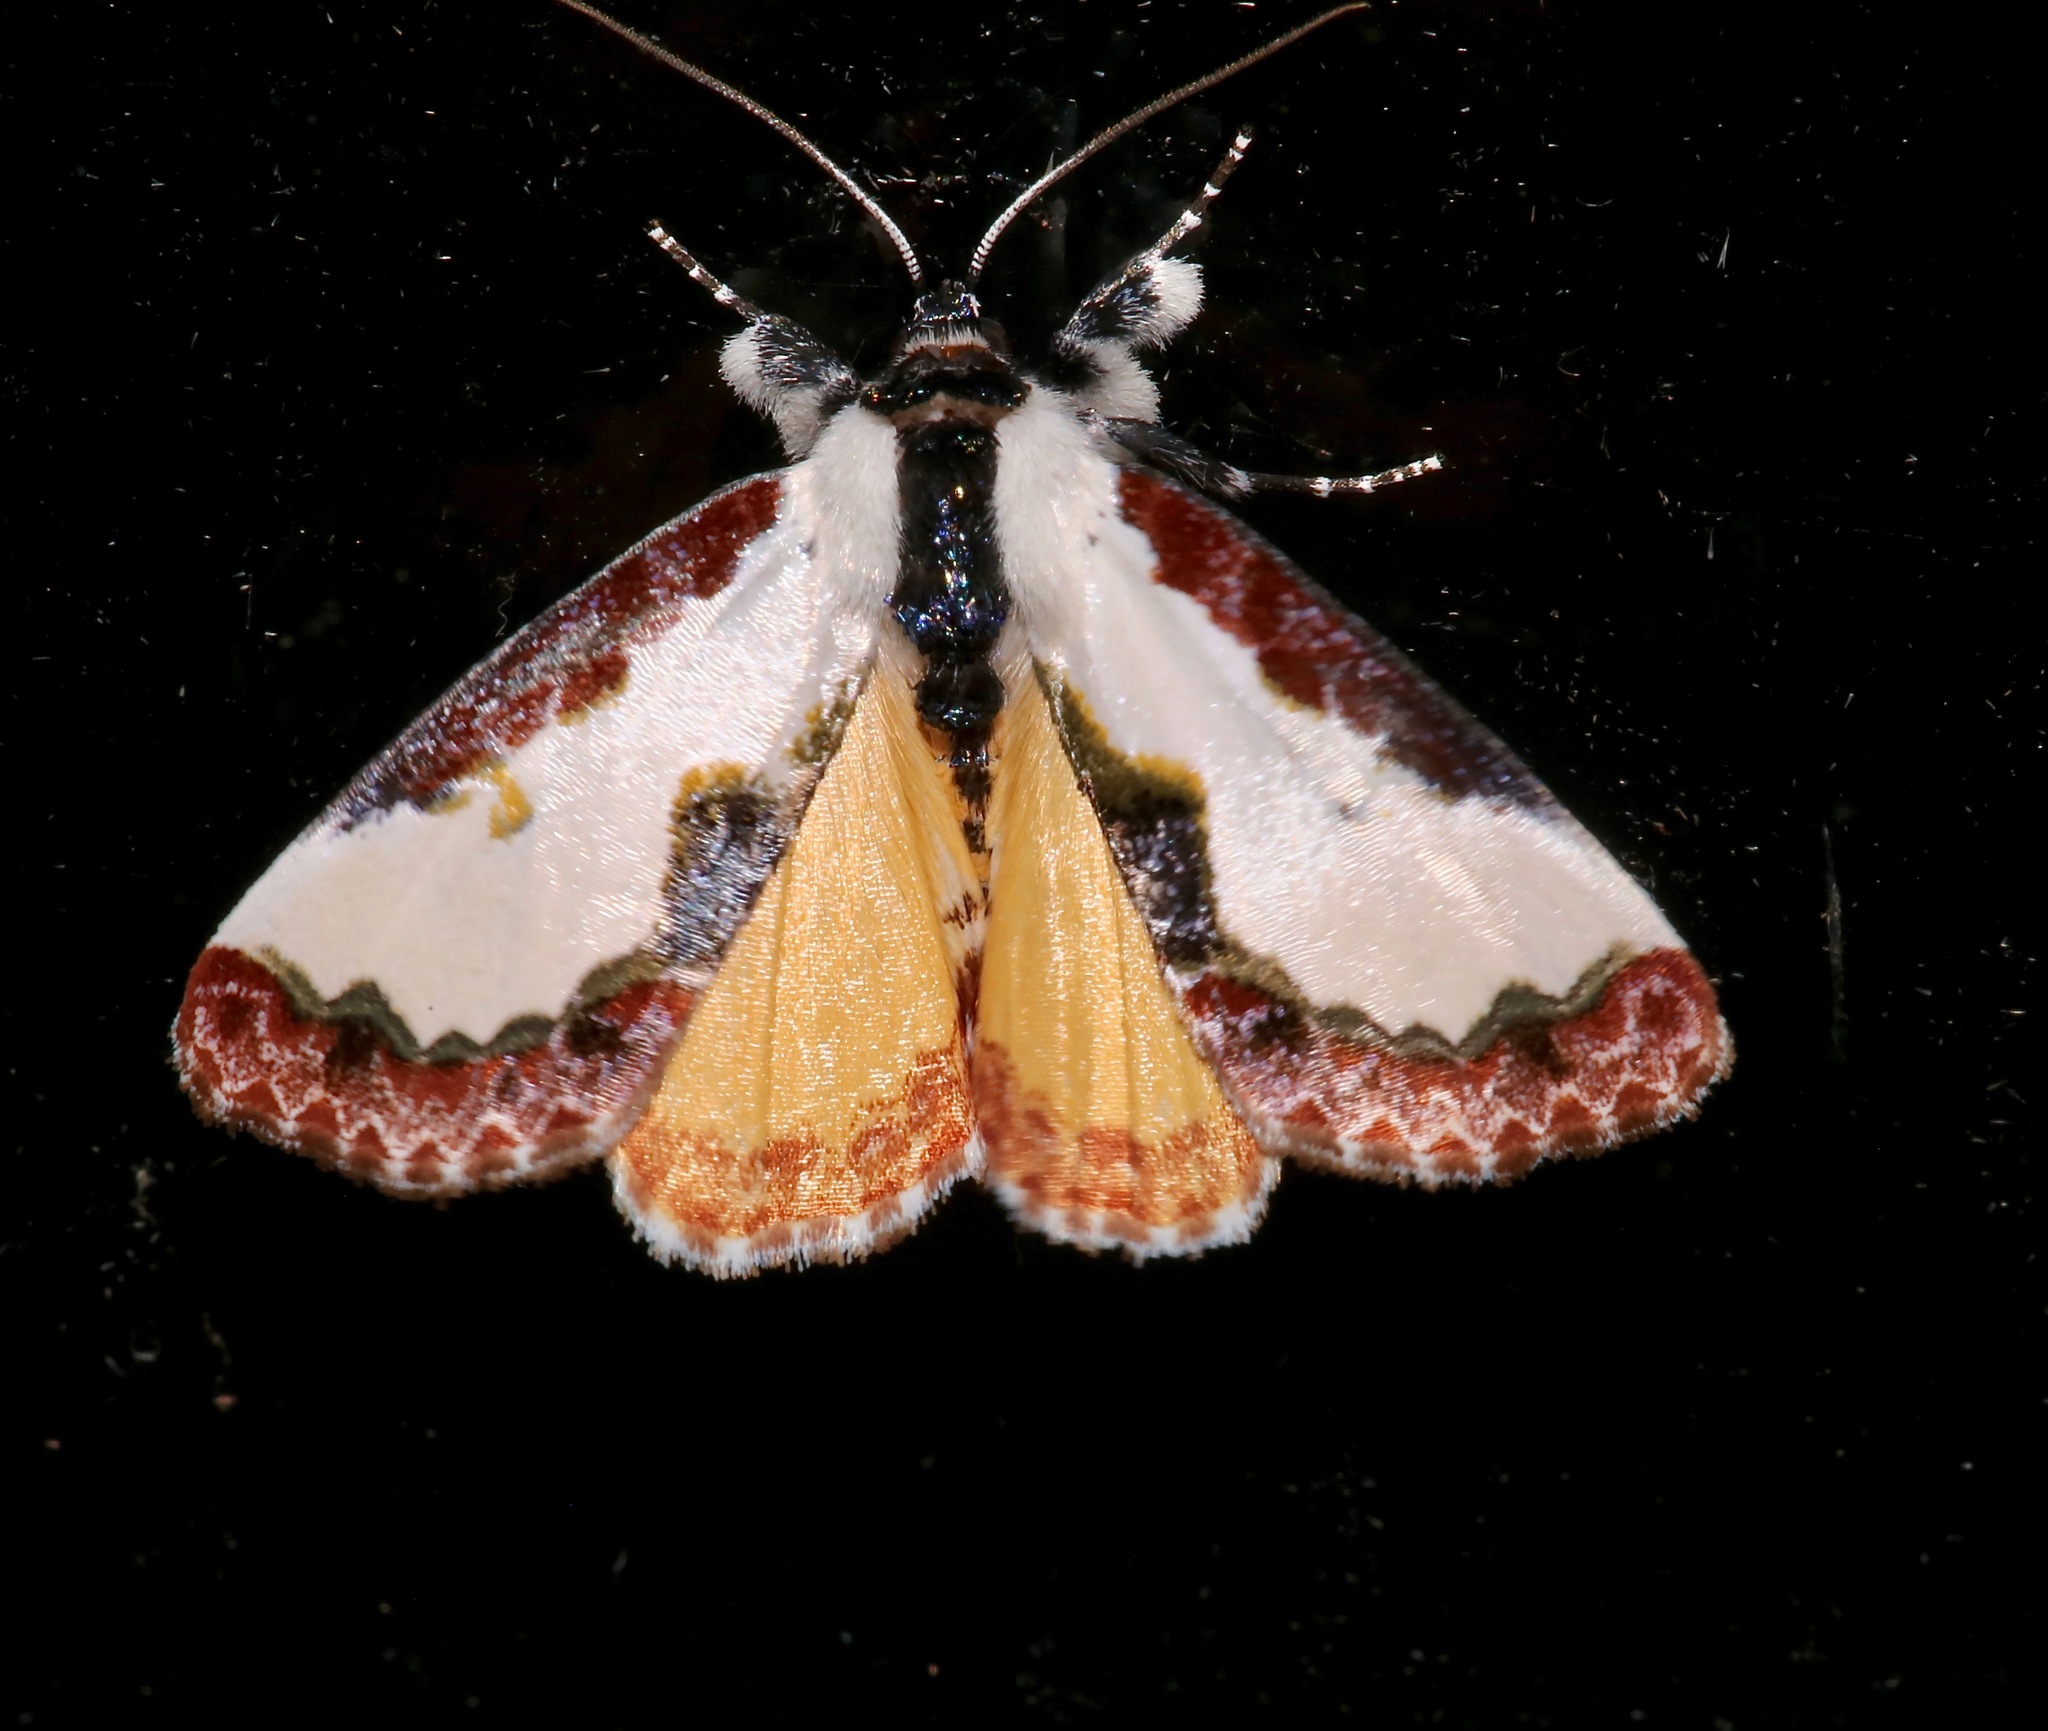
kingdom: Animalia
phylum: Arthropoda
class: Insecta
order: Lepidoptera
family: Noctuidae
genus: Eudryas
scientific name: Eudryas unio
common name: Pearly wood-nymph
